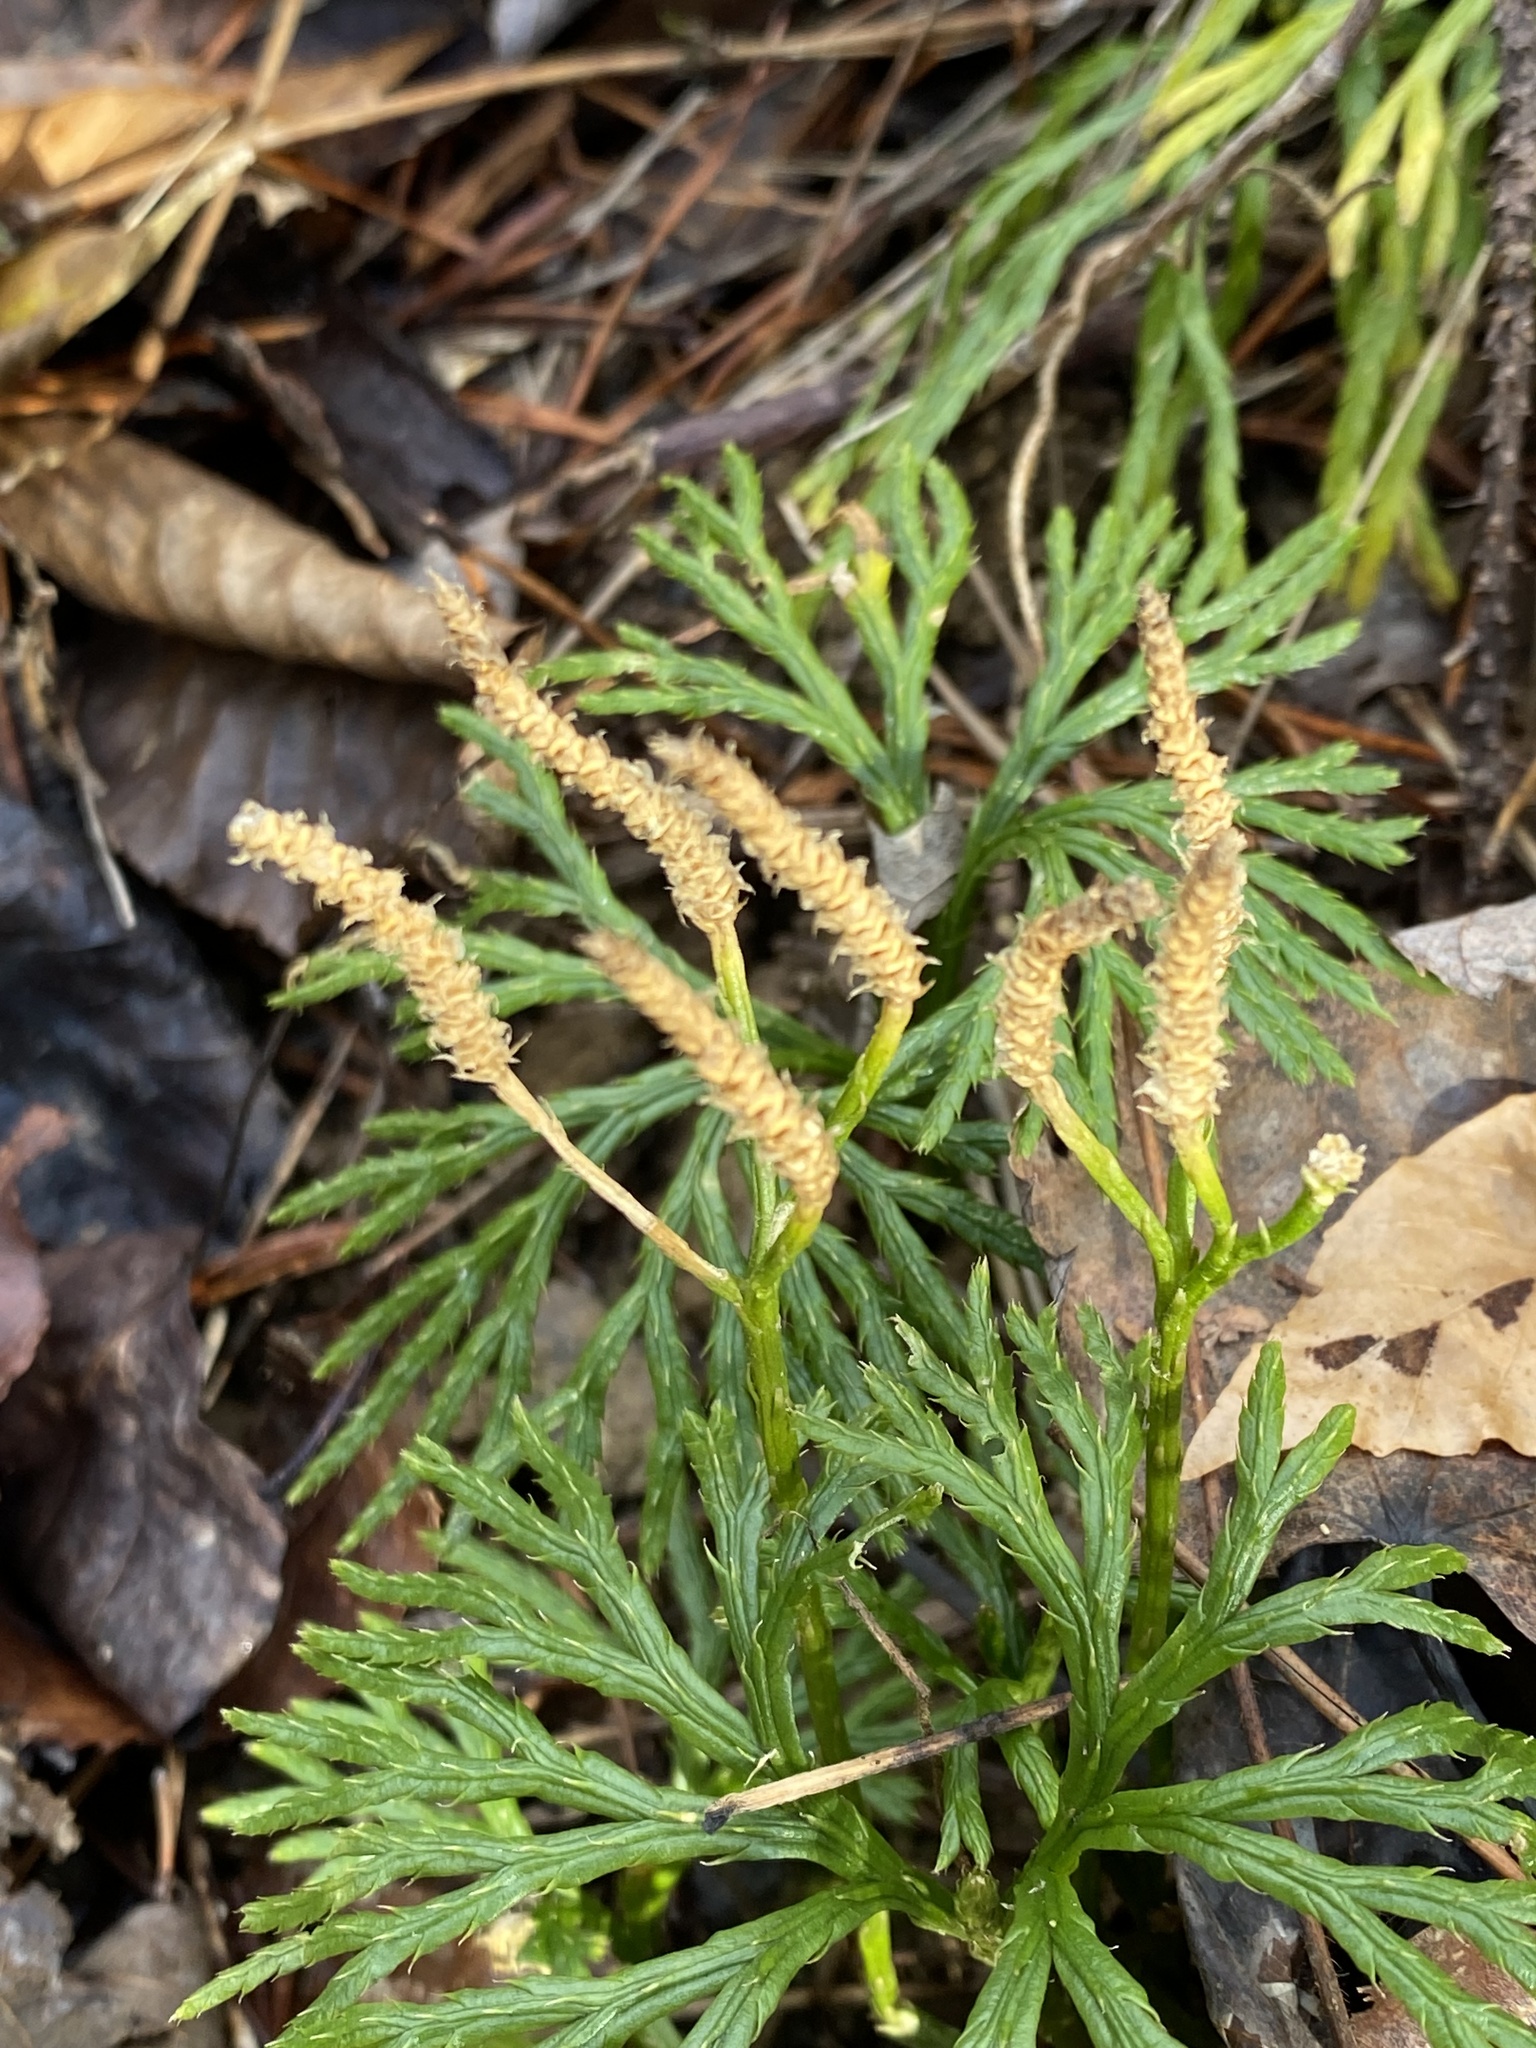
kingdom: Plantae
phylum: Tracheophyta
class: Lycopodiopsida
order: Lycopodiales
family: Lycopodiaceae
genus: Diphasiastrum
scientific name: Diphasiastrum digitatum
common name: Southern running-pine
